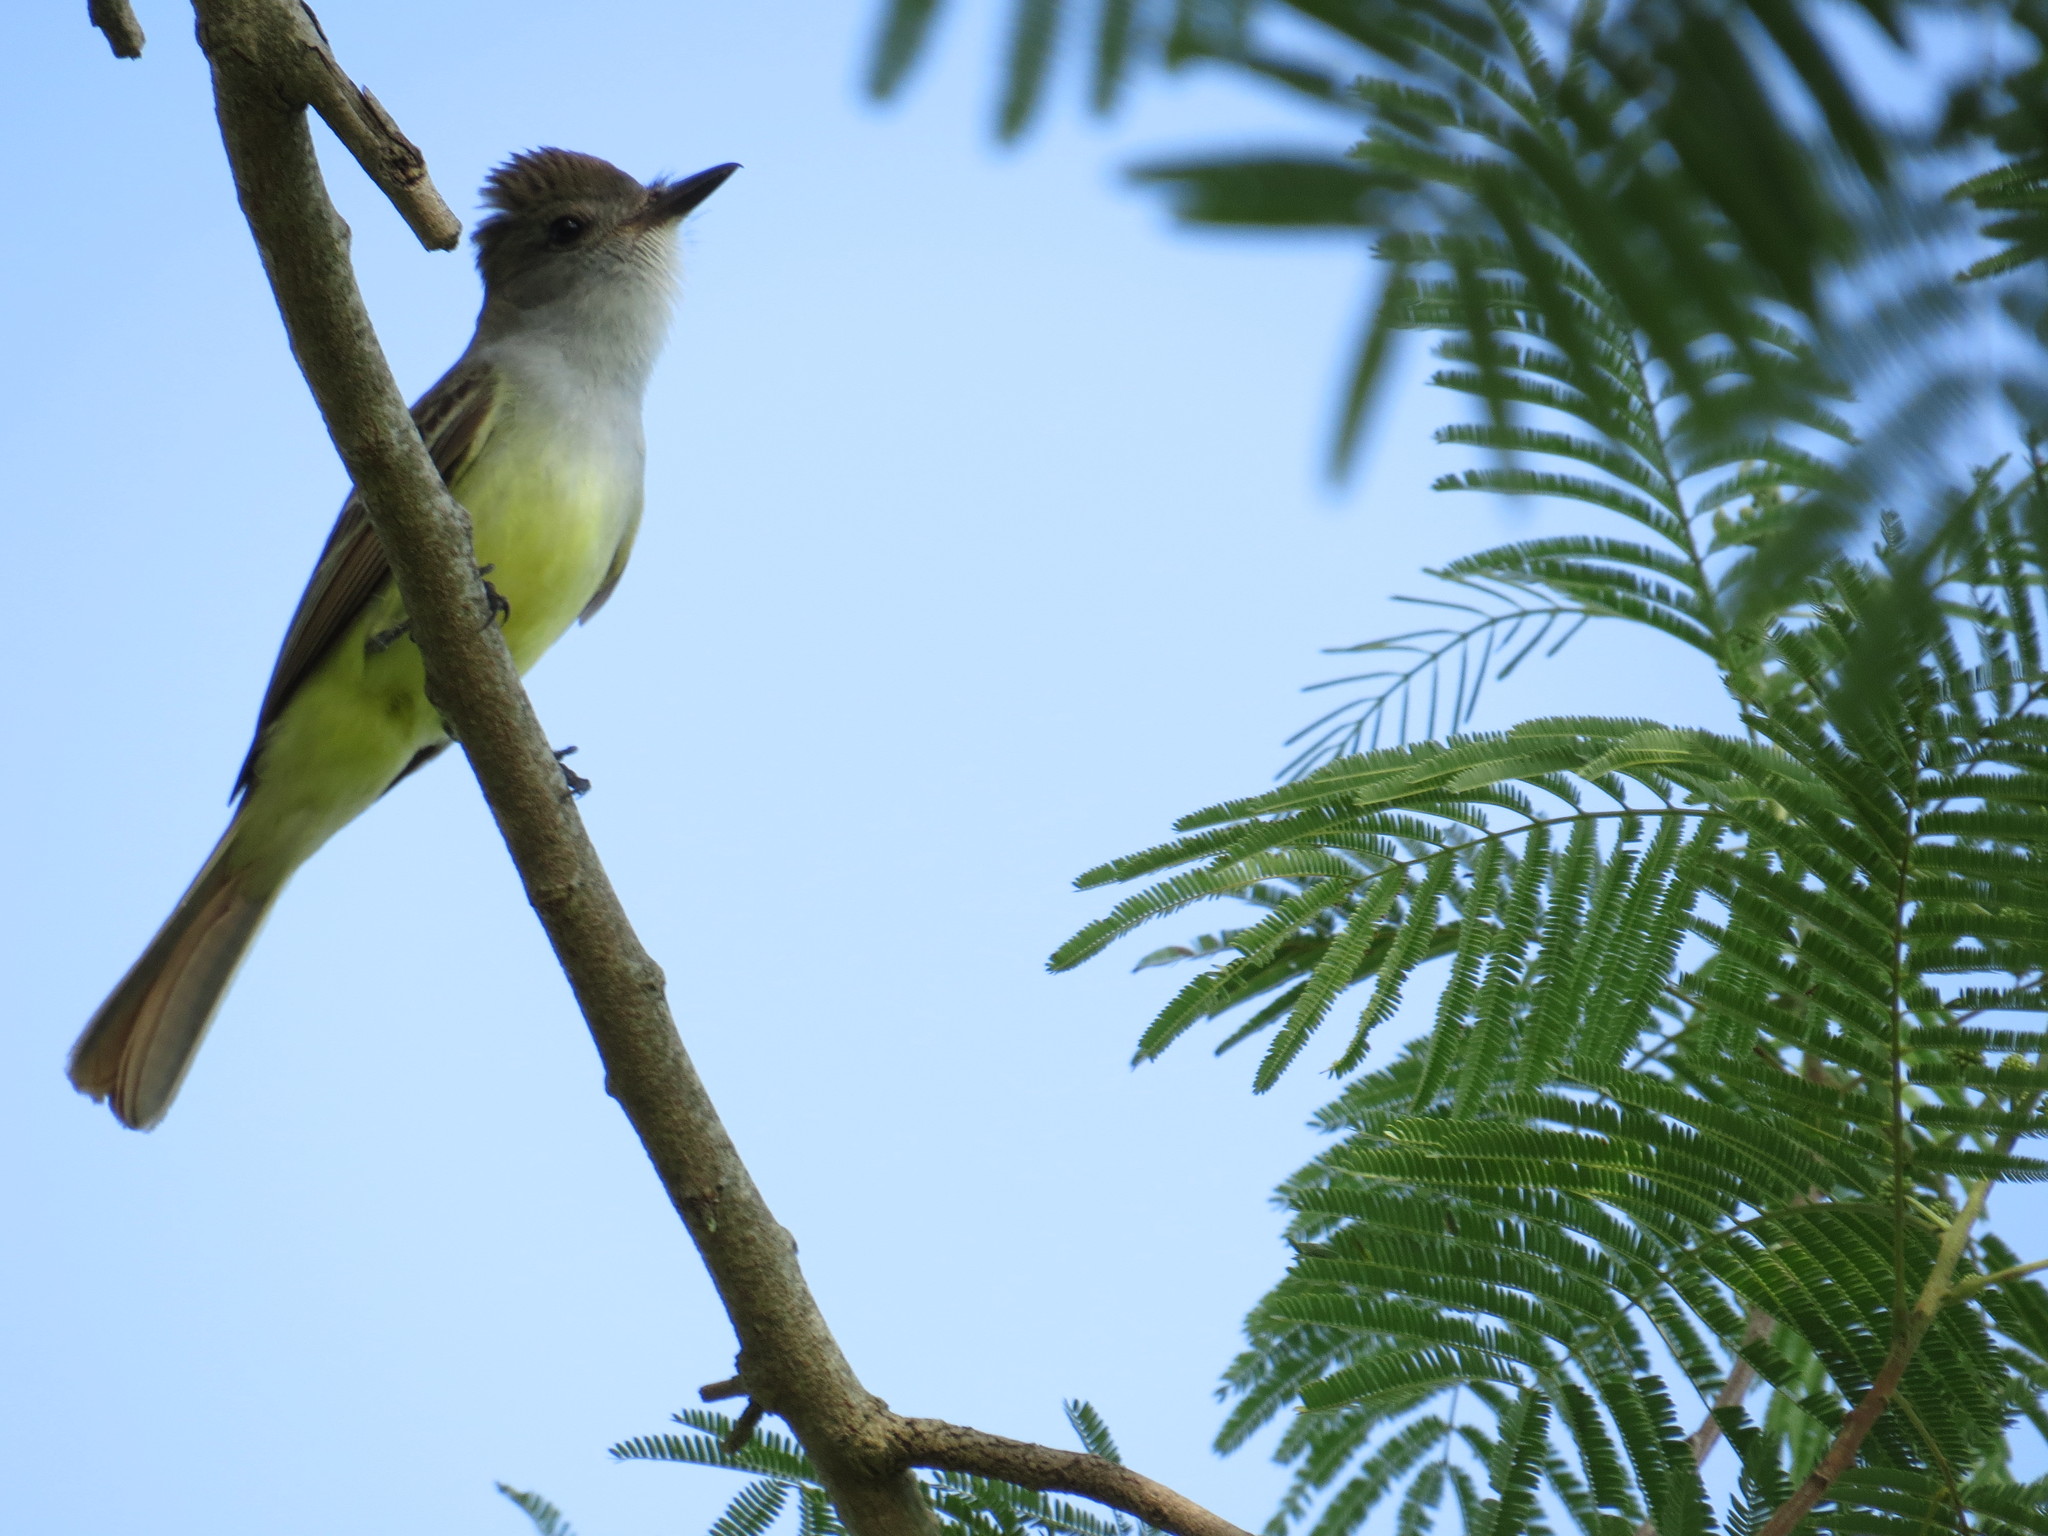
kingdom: Animalia
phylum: Chordata
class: Aves
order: Passeriformes
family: Tyrannidae
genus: Myiarchus
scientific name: Myiarchus tyrannulus
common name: Brown-crested flycatcher
